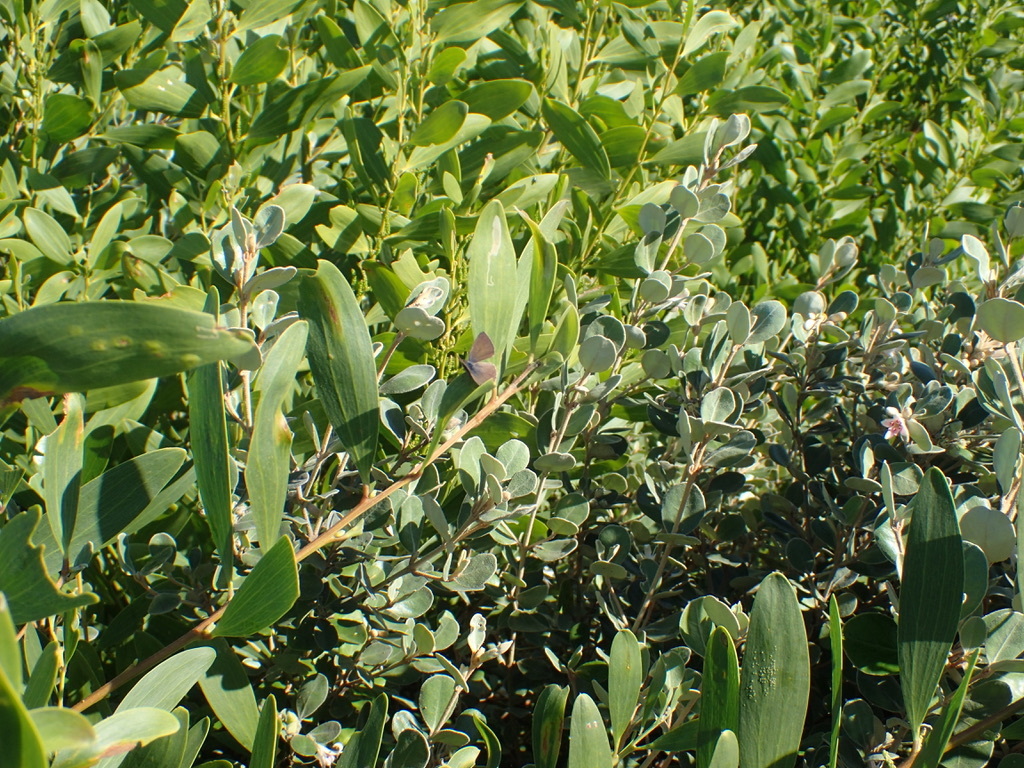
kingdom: Plantae
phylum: Tracheophyta
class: Magnoliopsida
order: Fabales
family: Fabaceae
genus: Acacia
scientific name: Acacia longifolia
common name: Sydney golden wattle
